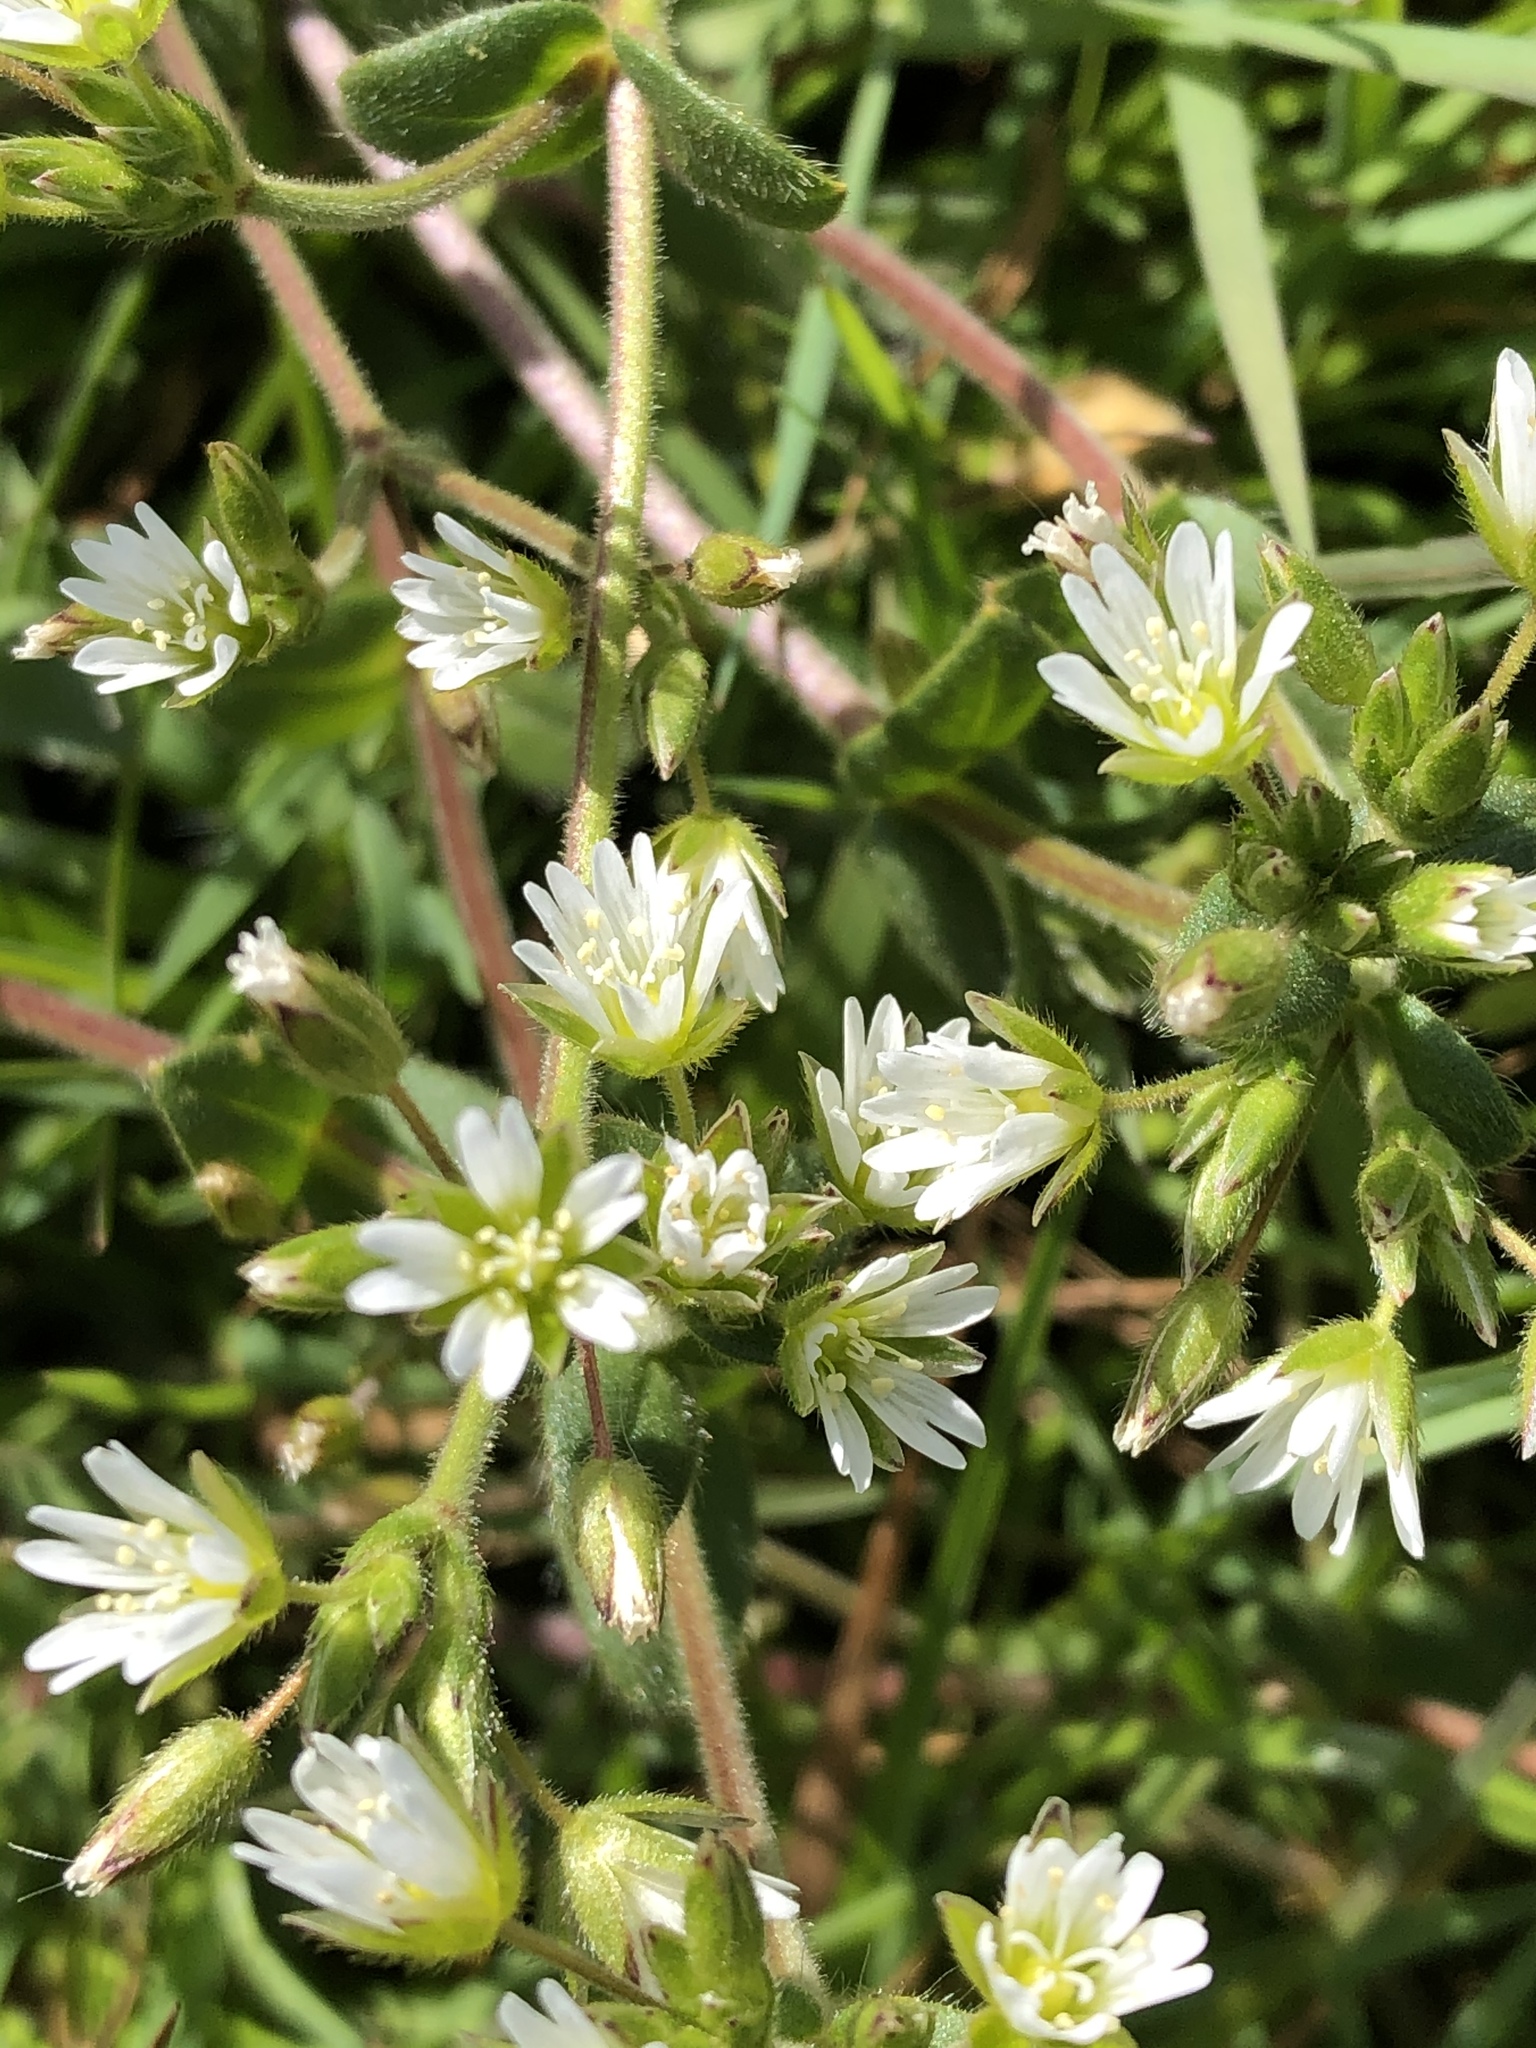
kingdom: Plantae
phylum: Tracheophyta
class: Magnoliopsida
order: Caryophyllales
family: Caryophyllaceae
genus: Cerastium
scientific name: Cerastium fontanum
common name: Common mouse-ear
